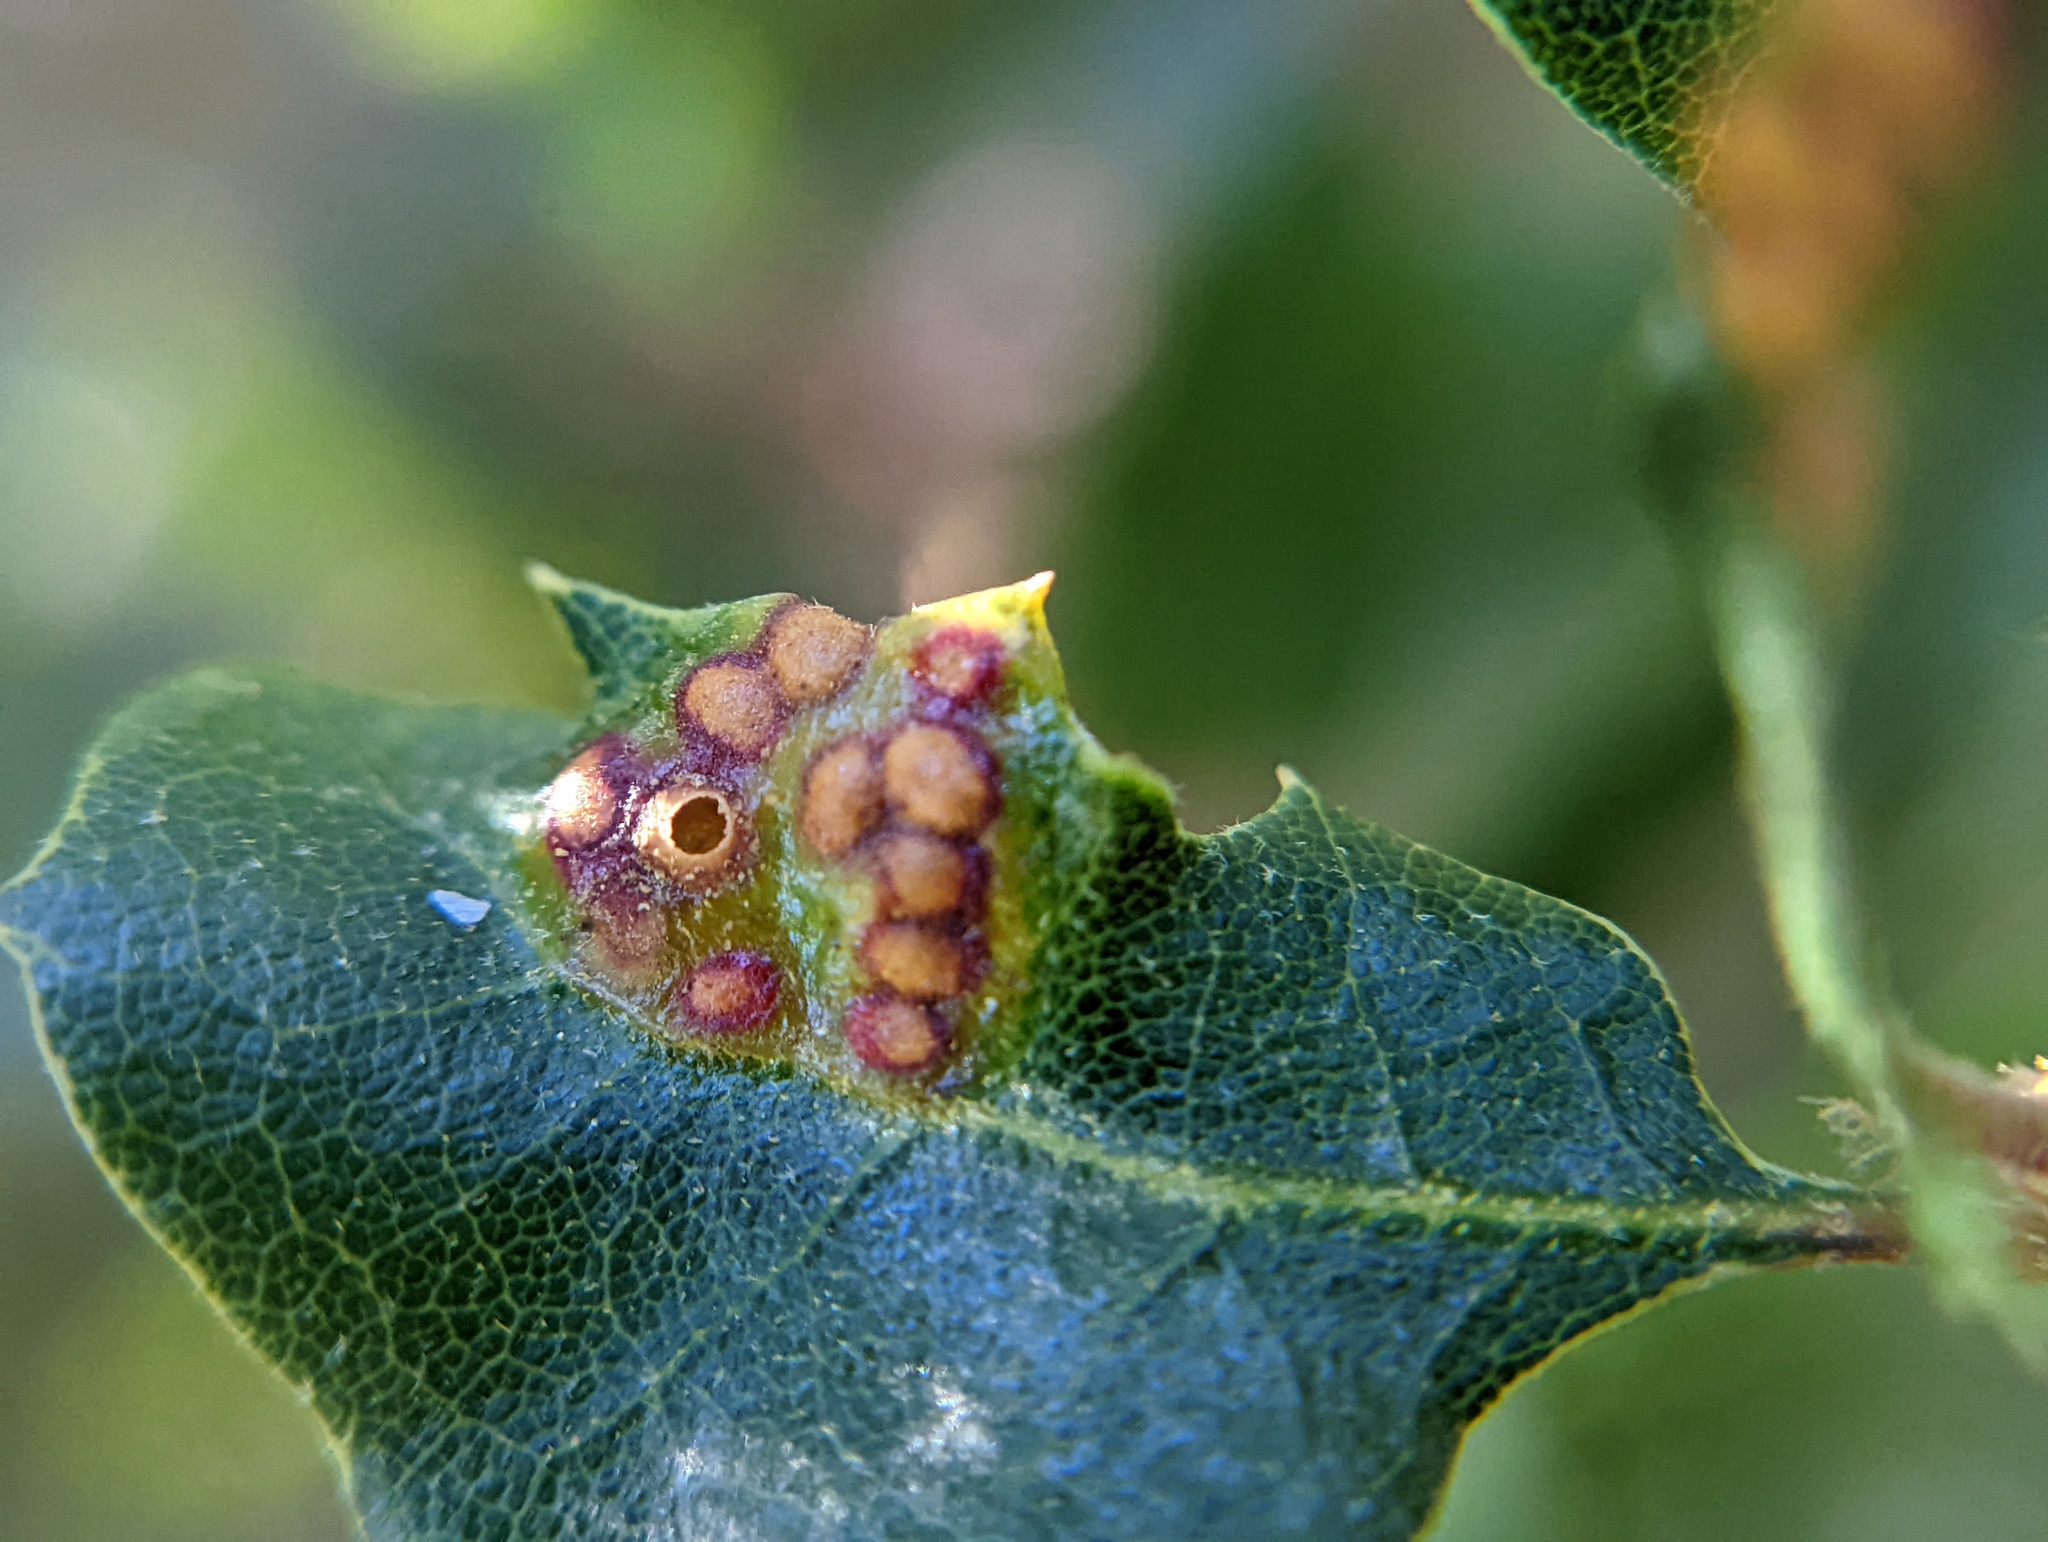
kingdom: Animalia
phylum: Arthropoda
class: Insecta
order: Hymenoptera
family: Cynipidae
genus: Neuroterus
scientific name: Neuroterus saltarius
